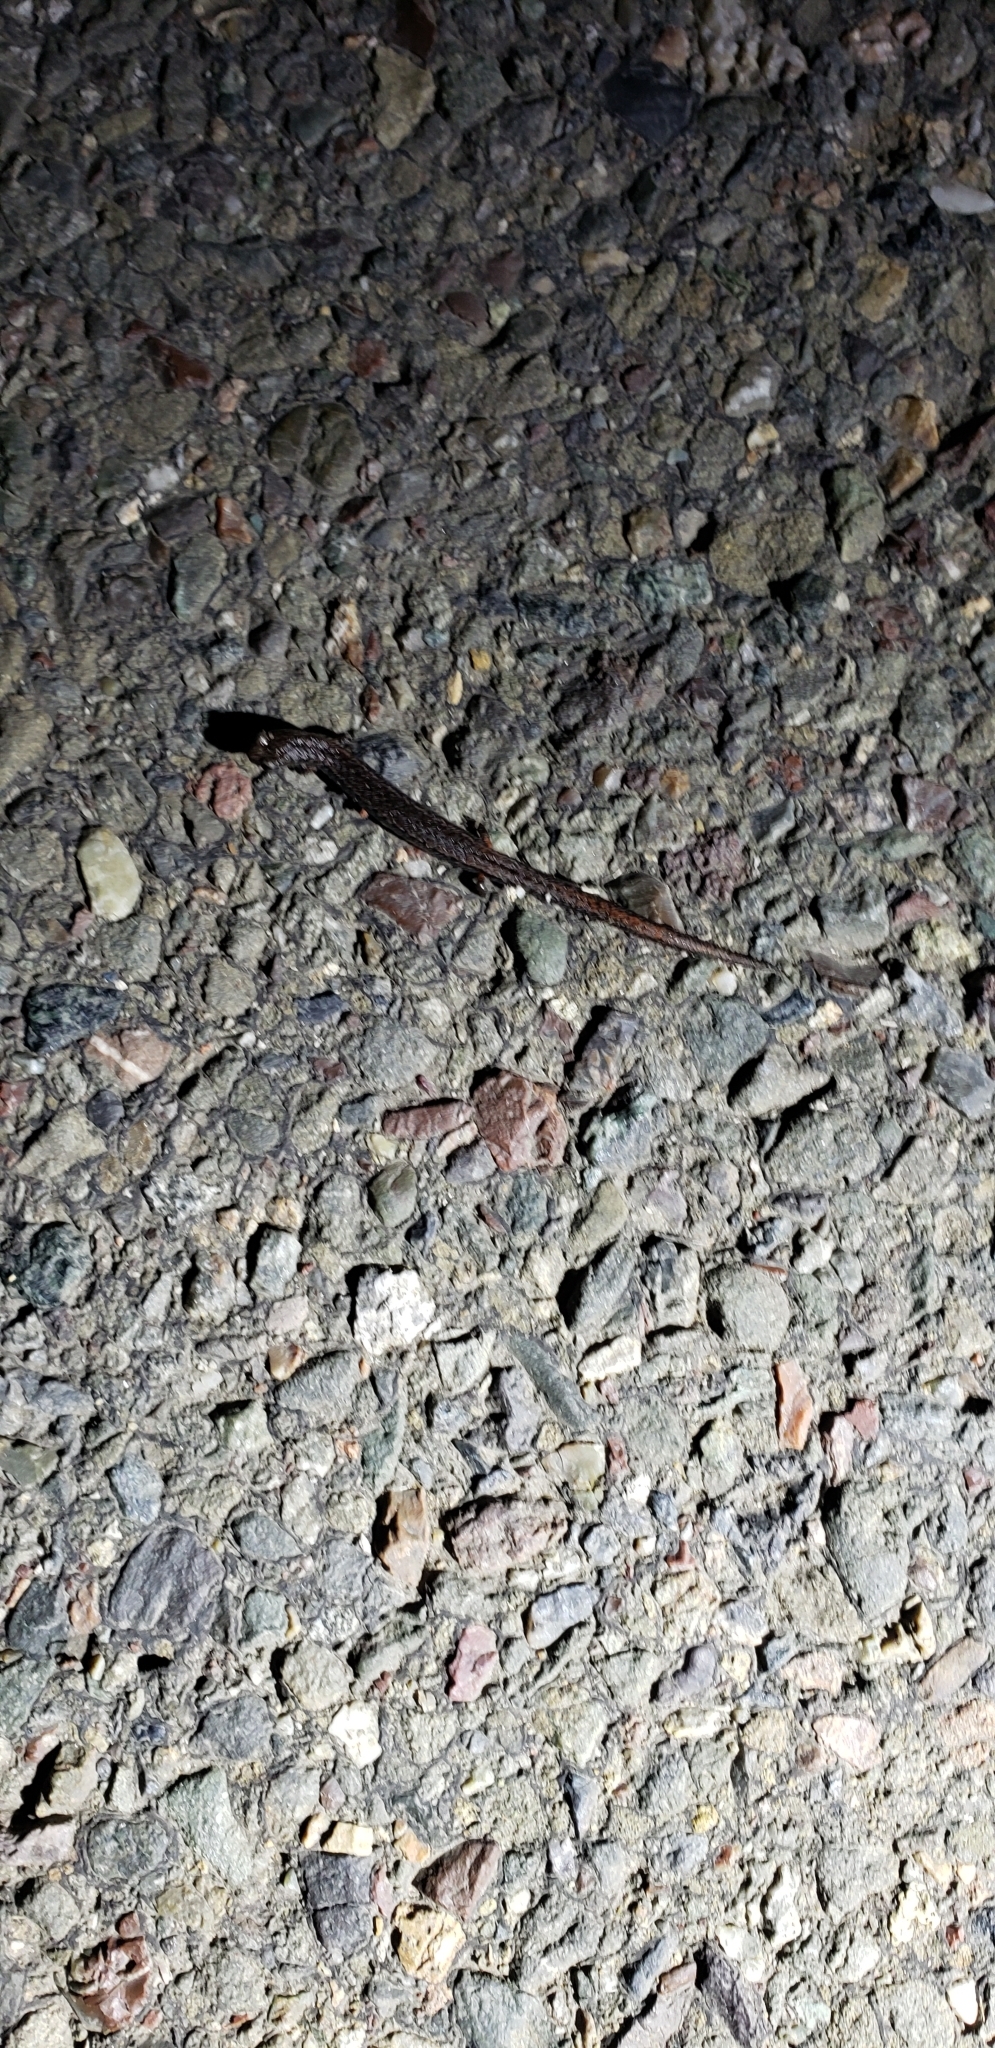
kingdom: Animalia
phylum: Chordata
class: Amphibia
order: Caudata
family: Plethodontidae
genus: Batrachoseps
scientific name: Batrachoseps attenuatus
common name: California slender salamander
